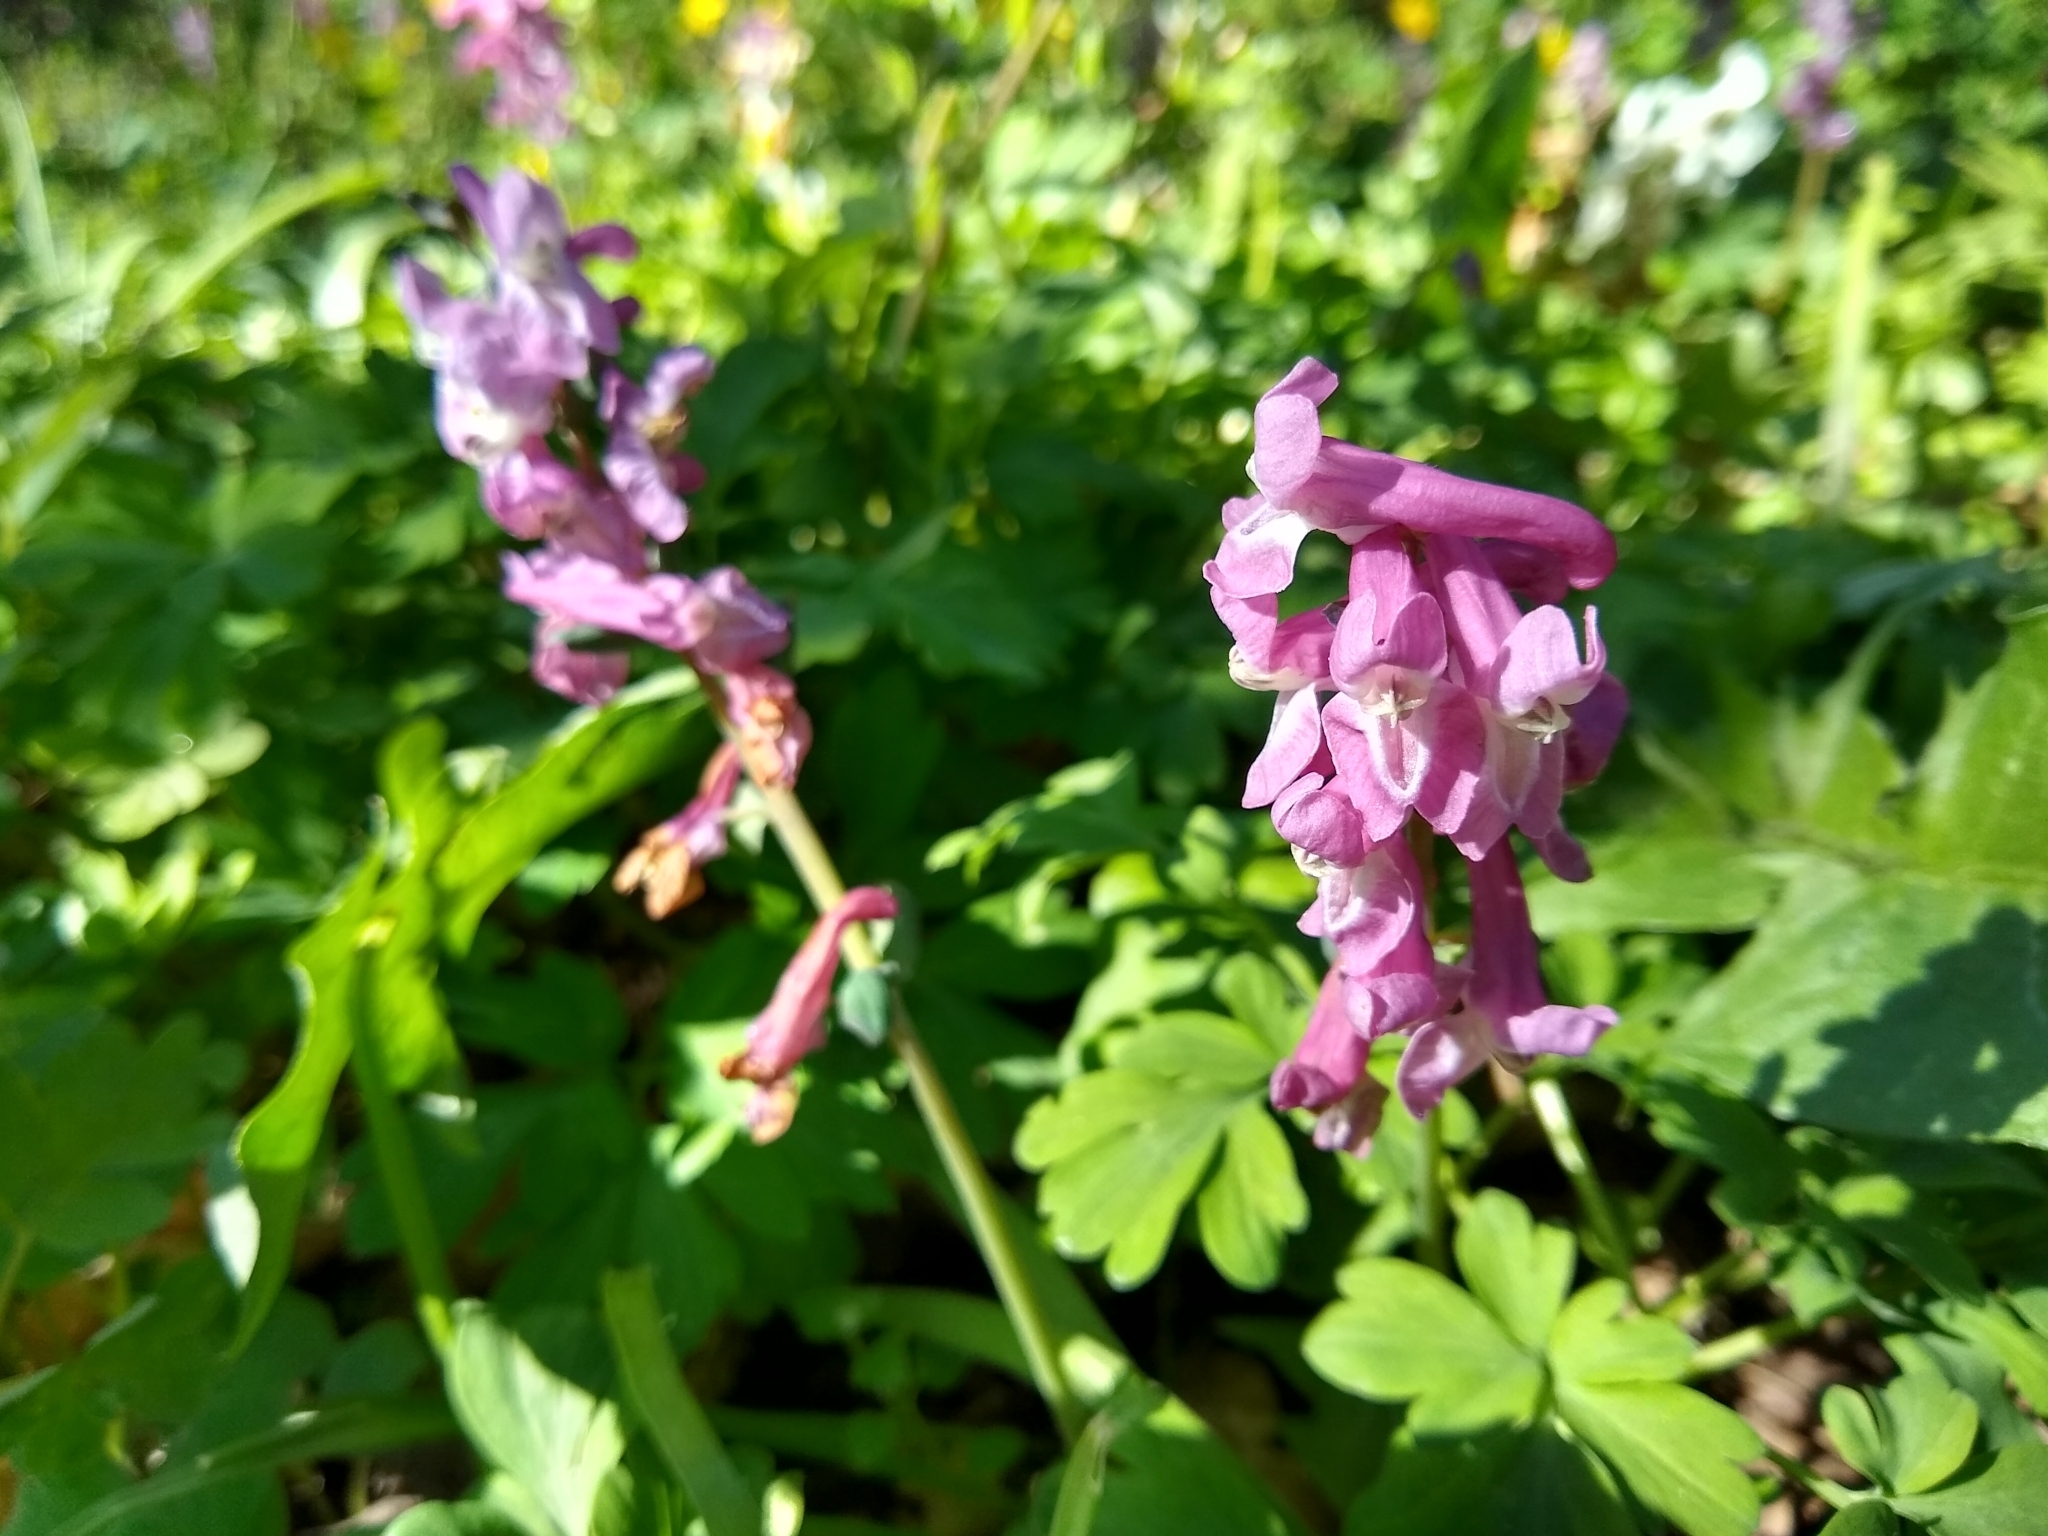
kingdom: Plantae
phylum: Tracheophyta
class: Magnoliopsida
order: Ranunculales
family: Papaveraceae
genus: Corydalis
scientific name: Corydalis cava
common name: Hollowroot
